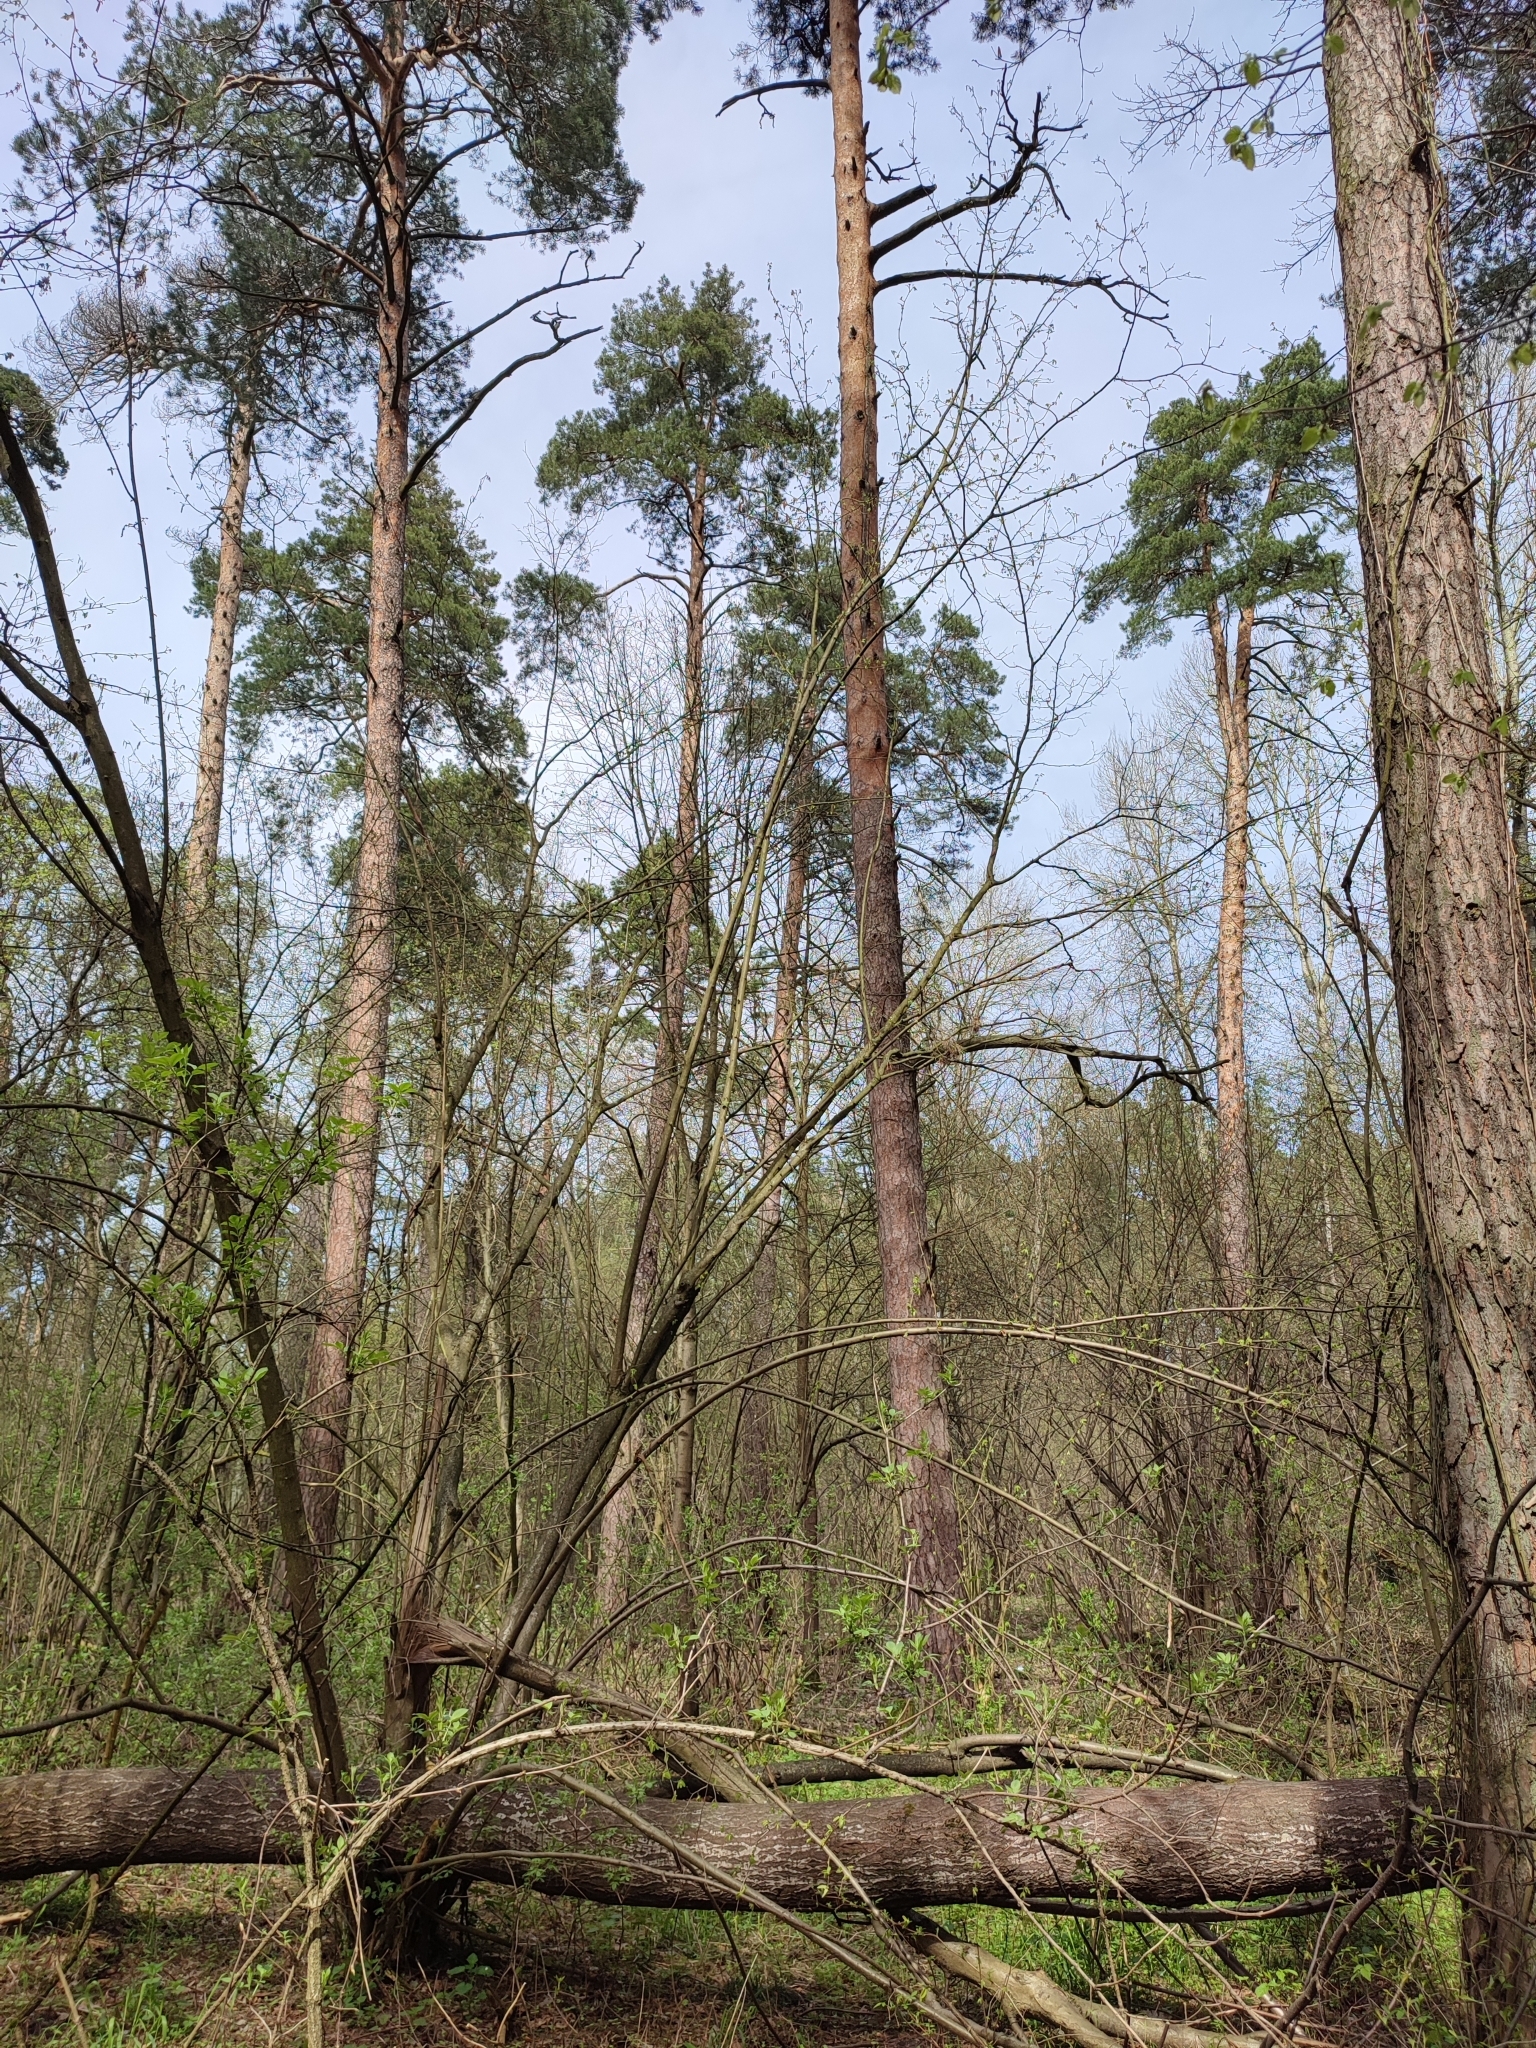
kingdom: Plantae
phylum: Tracheophyta
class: Pinopsida
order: Pinales
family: Pinaceae
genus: Pinus
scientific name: Pinus sylvestris
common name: Scots pine
